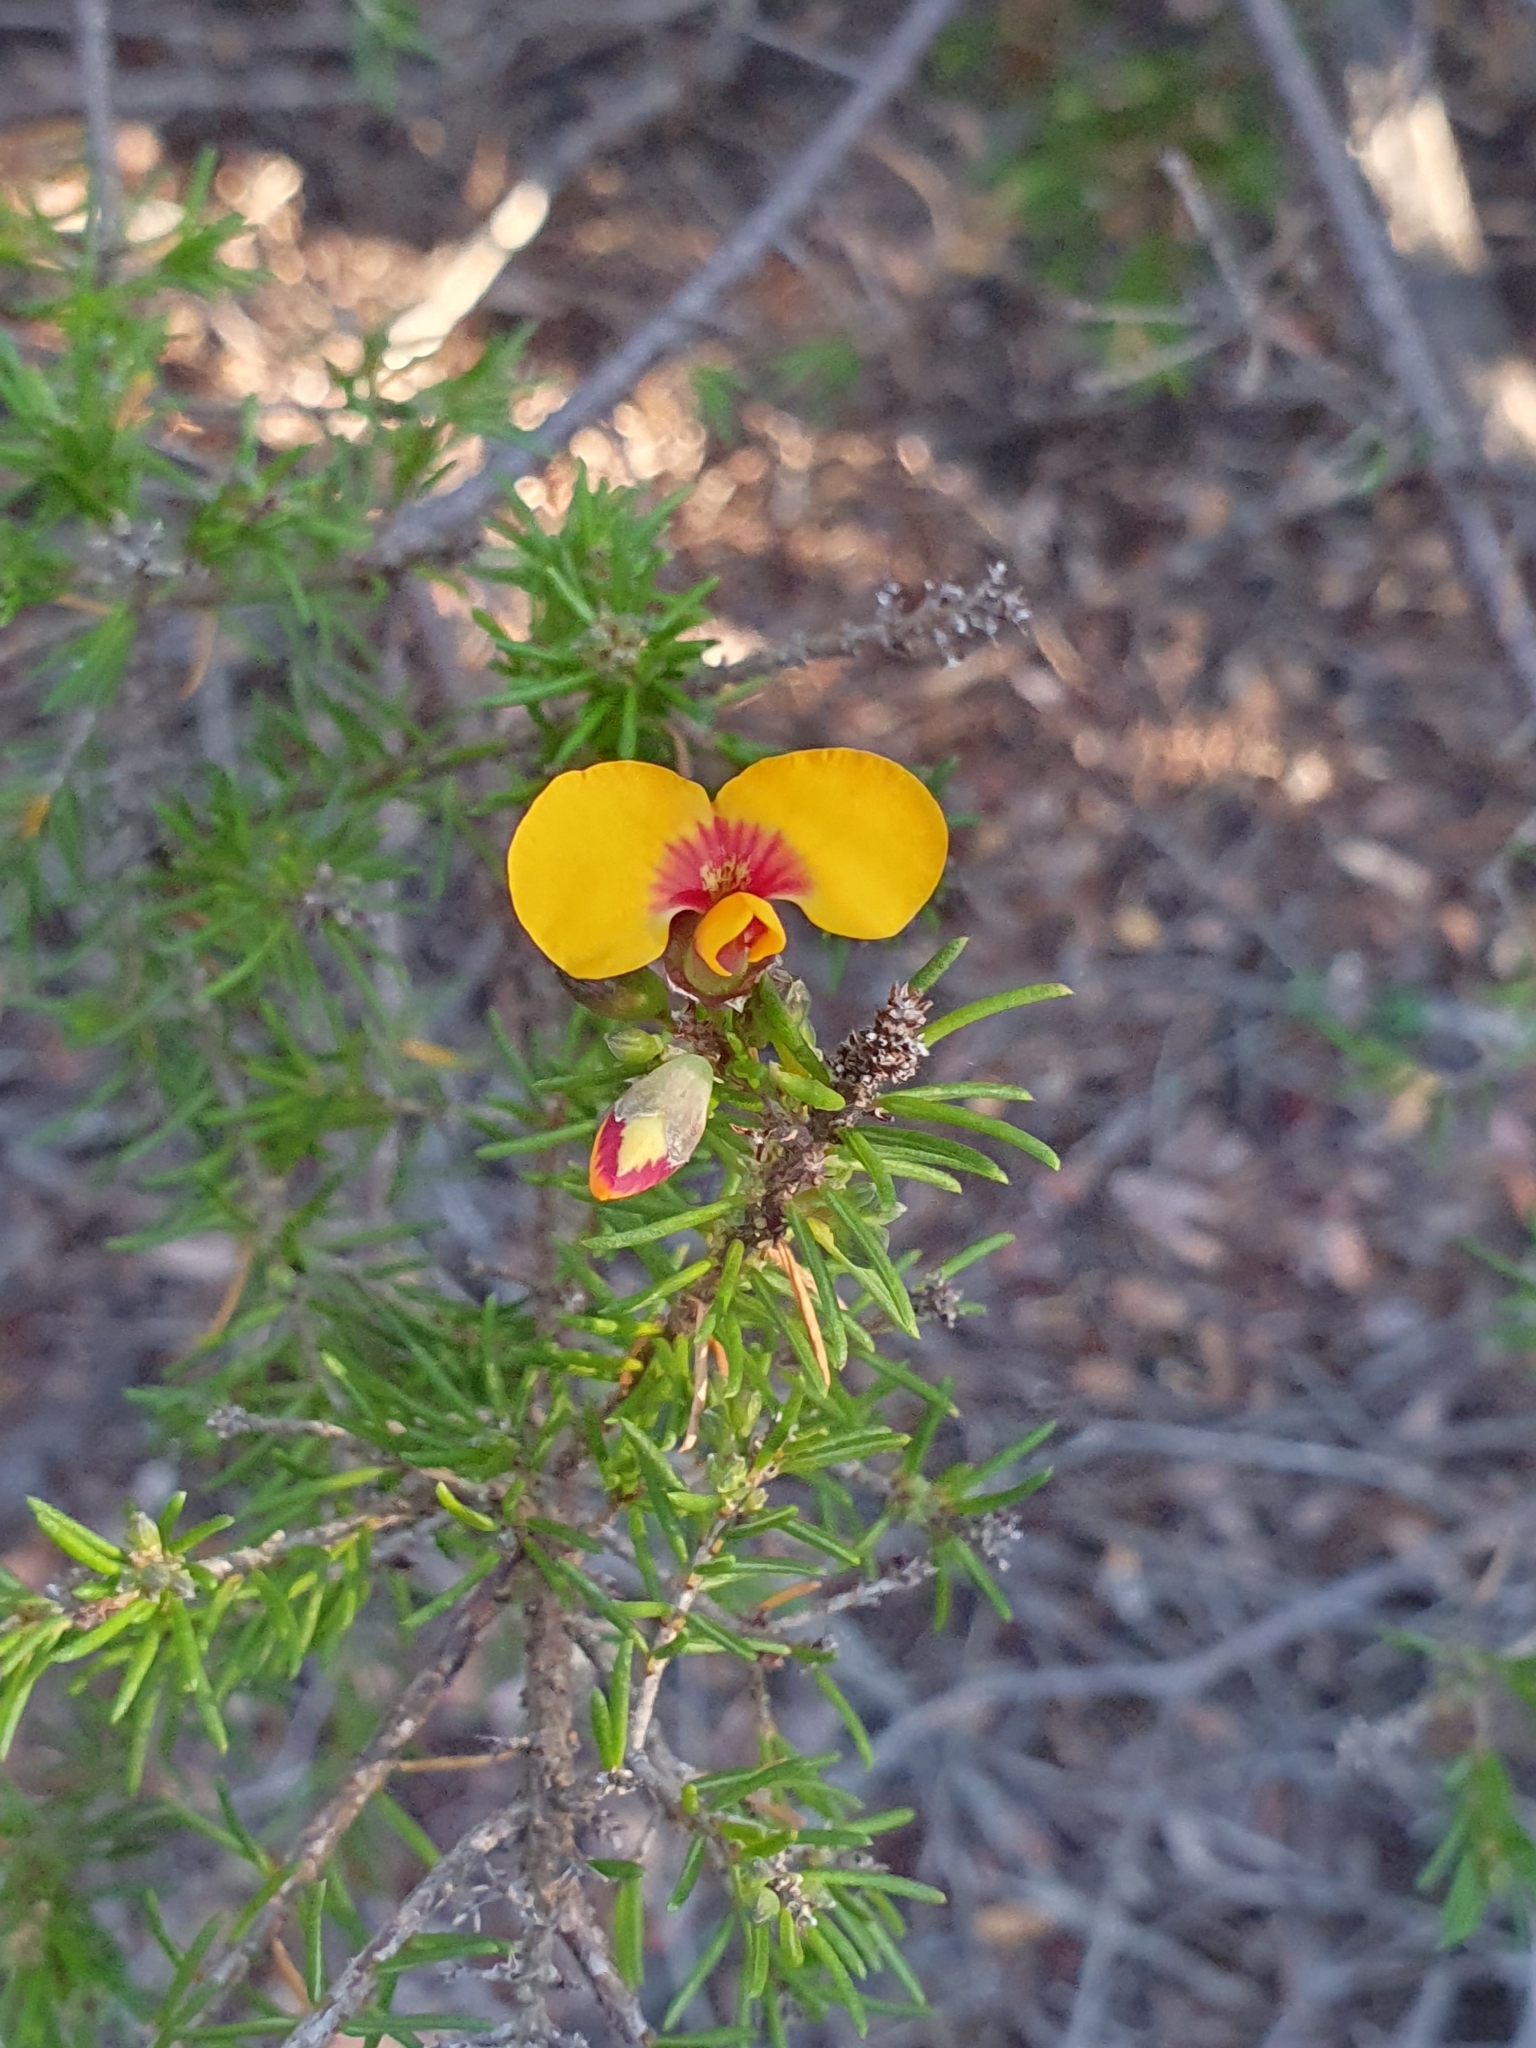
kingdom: Plantae
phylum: Tracheophyta
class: Magnoliopsida
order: Fabales
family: Fabaceae
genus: Dillwynia
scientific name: Dillwynia retorta
